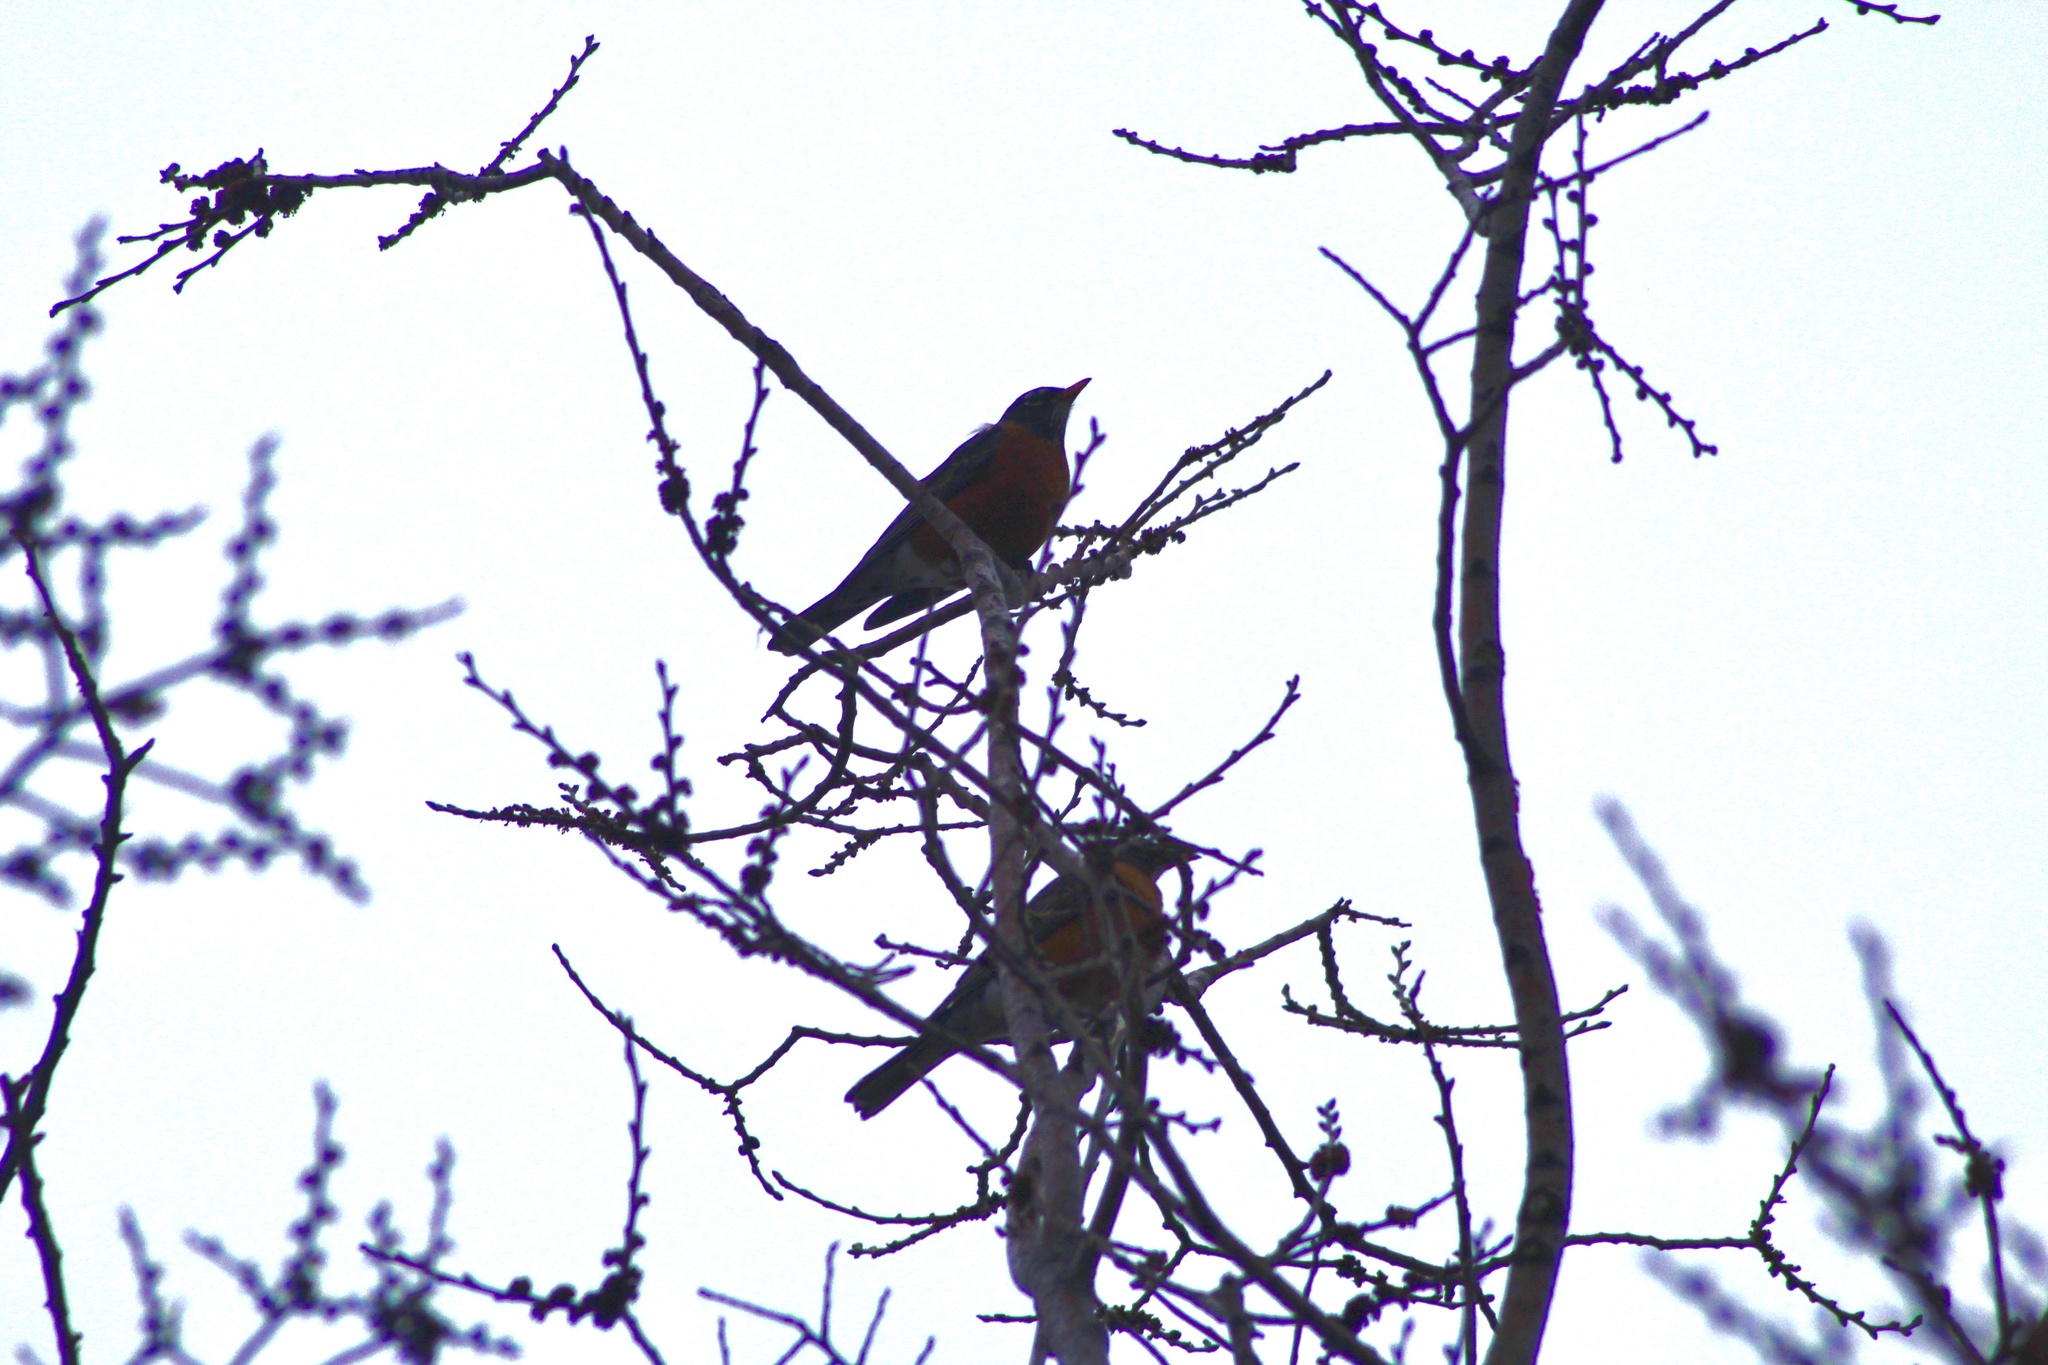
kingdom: Animalia
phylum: Chordata
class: Aves
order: Passeriformes
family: Turdidae
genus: Turdus
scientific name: Turdus migratorius
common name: American robin
